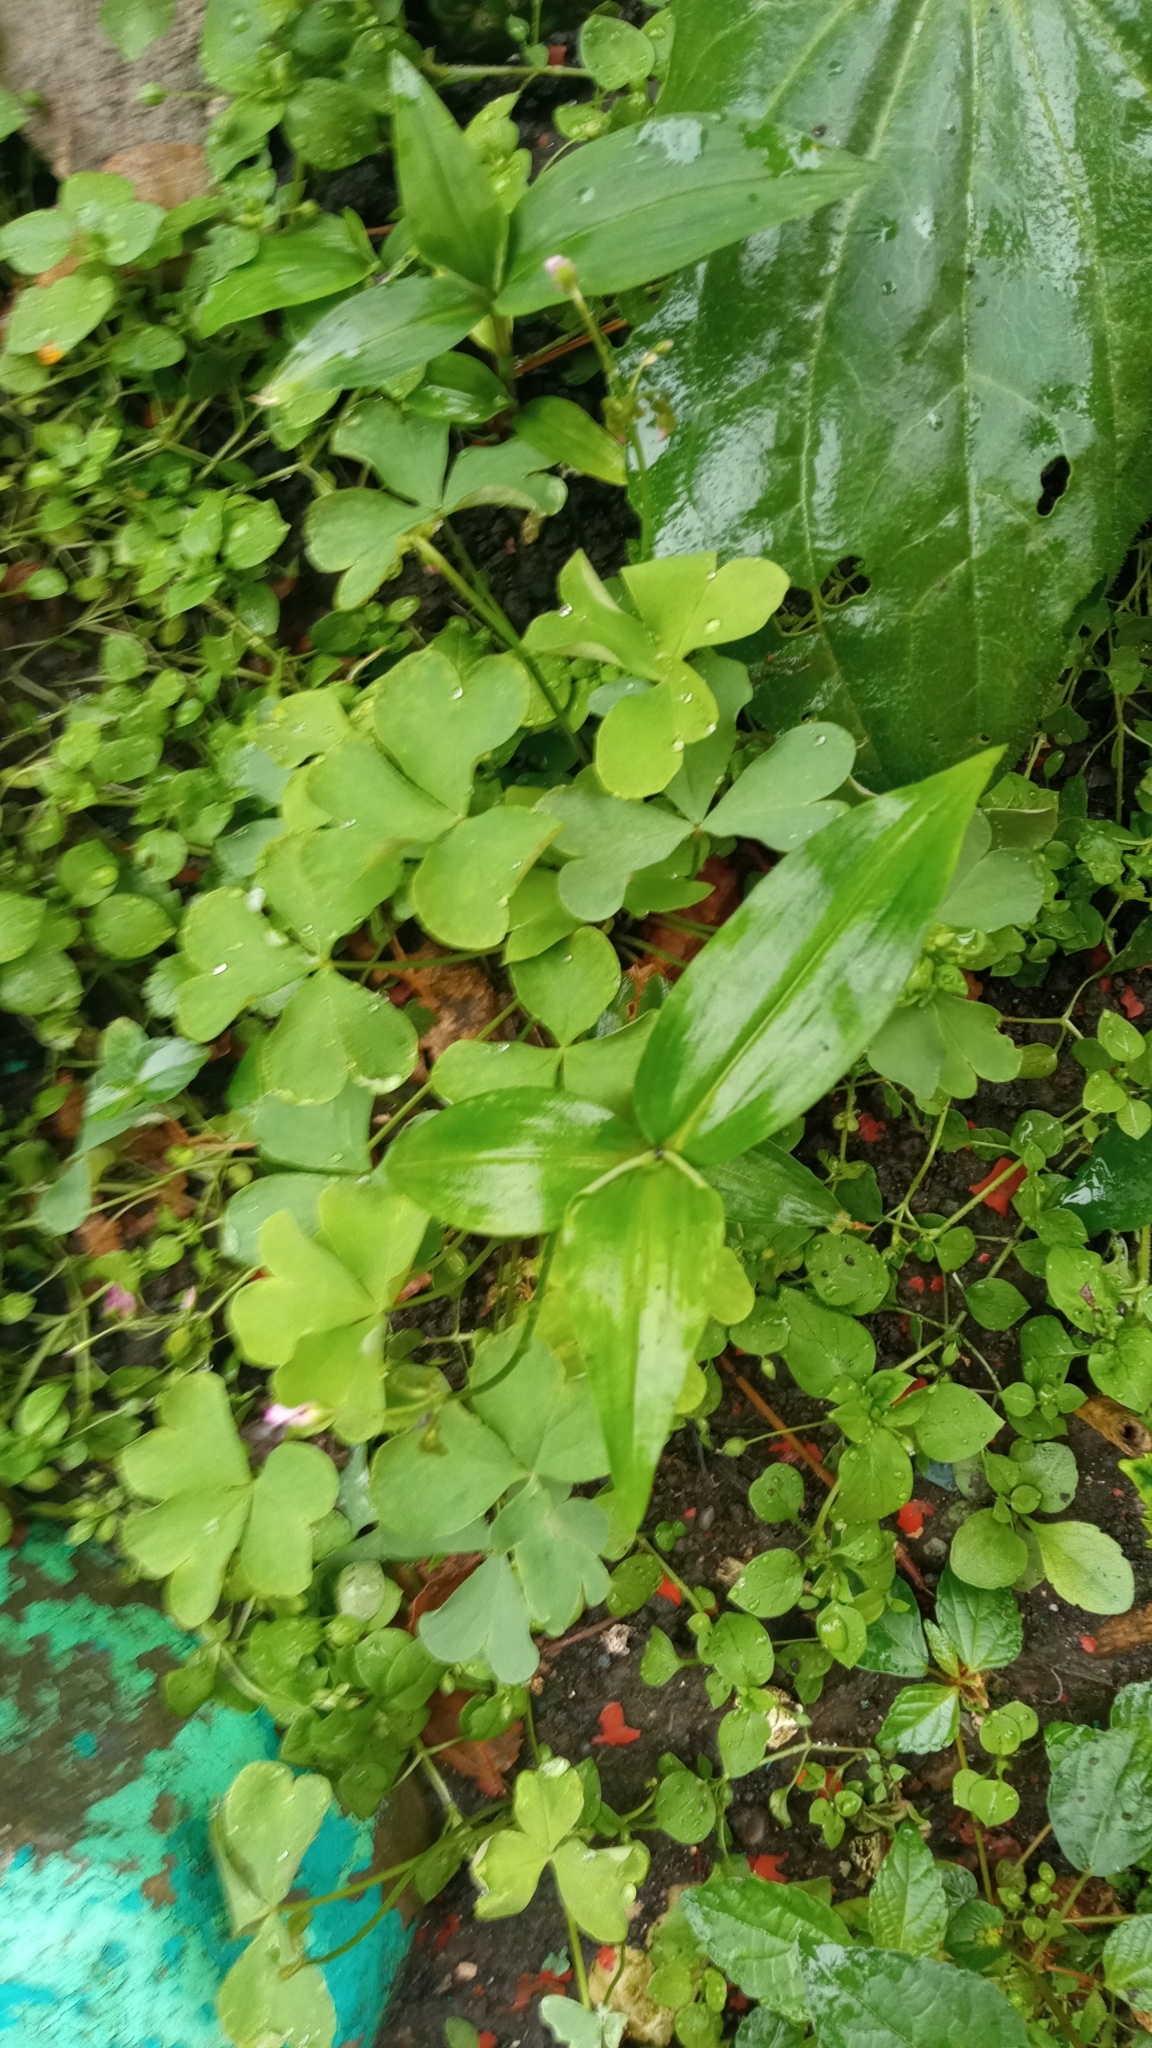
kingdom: Plantae
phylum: Tracheophyta
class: Liliopsida
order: Commelinales
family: Commelinaceae
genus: Commelina
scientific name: Commelina communis
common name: Asiatic dayflower
